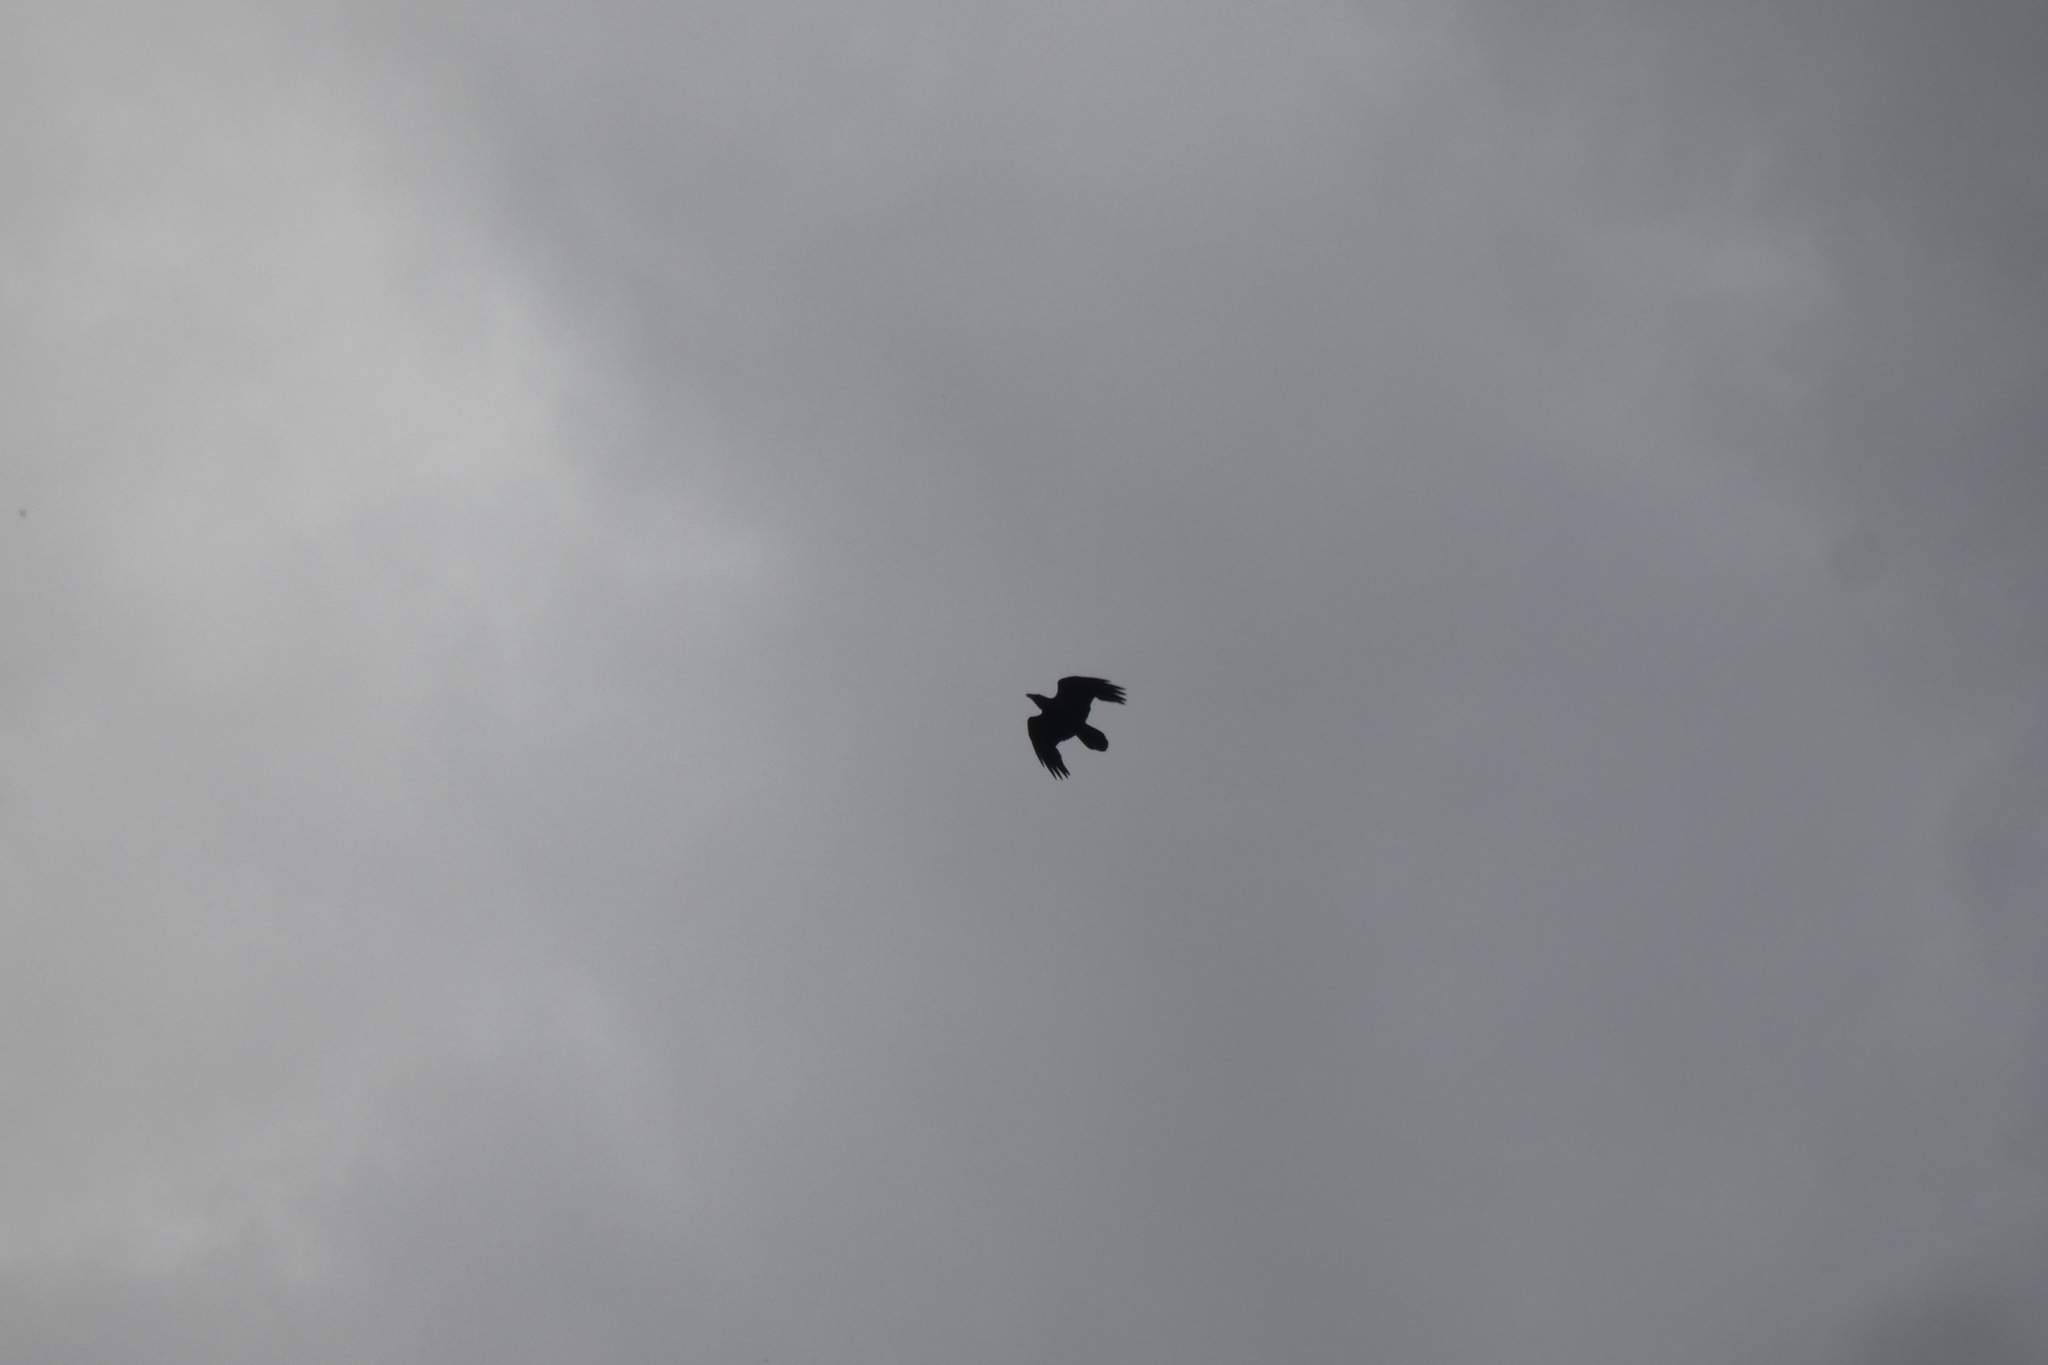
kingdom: Animalia
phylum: Chordata
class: Aves
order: Passeriformes
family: Corvidae
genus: Corvus
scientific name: Corvus corax
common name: Common raven
